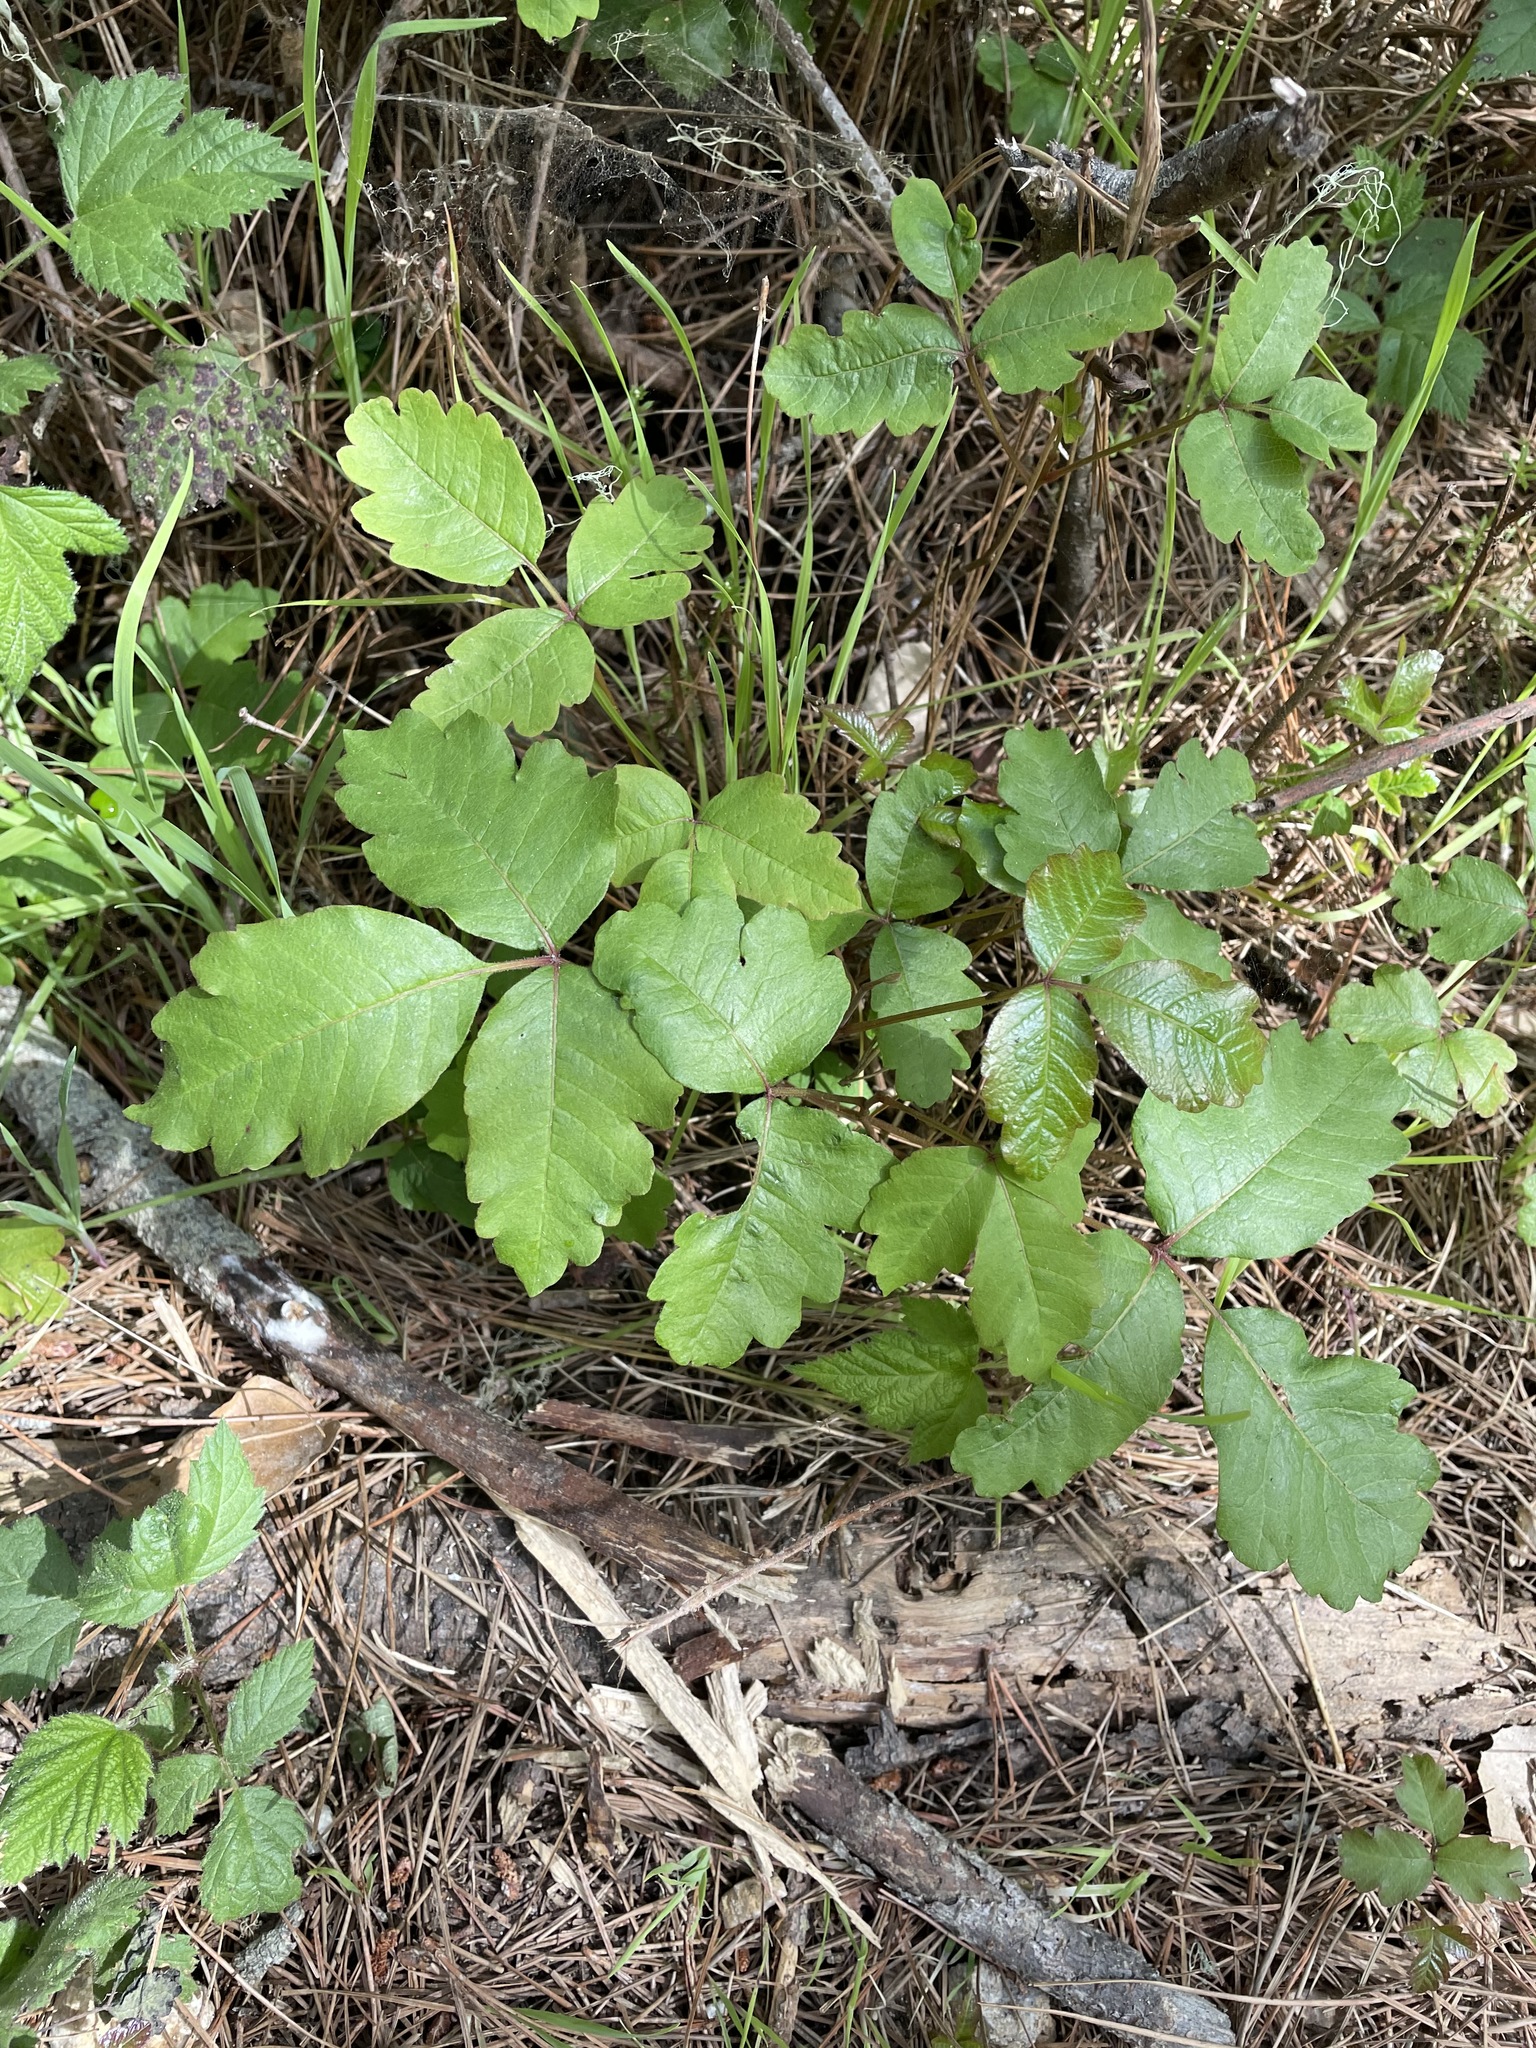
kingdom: Plantae
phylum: Tracheophyta
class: Magnoliopsida
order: Sapindales
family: Anacardiaceae
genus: Toxicodendron
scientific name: Toxicodendron diversilobum
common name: Pacific poison-oak
